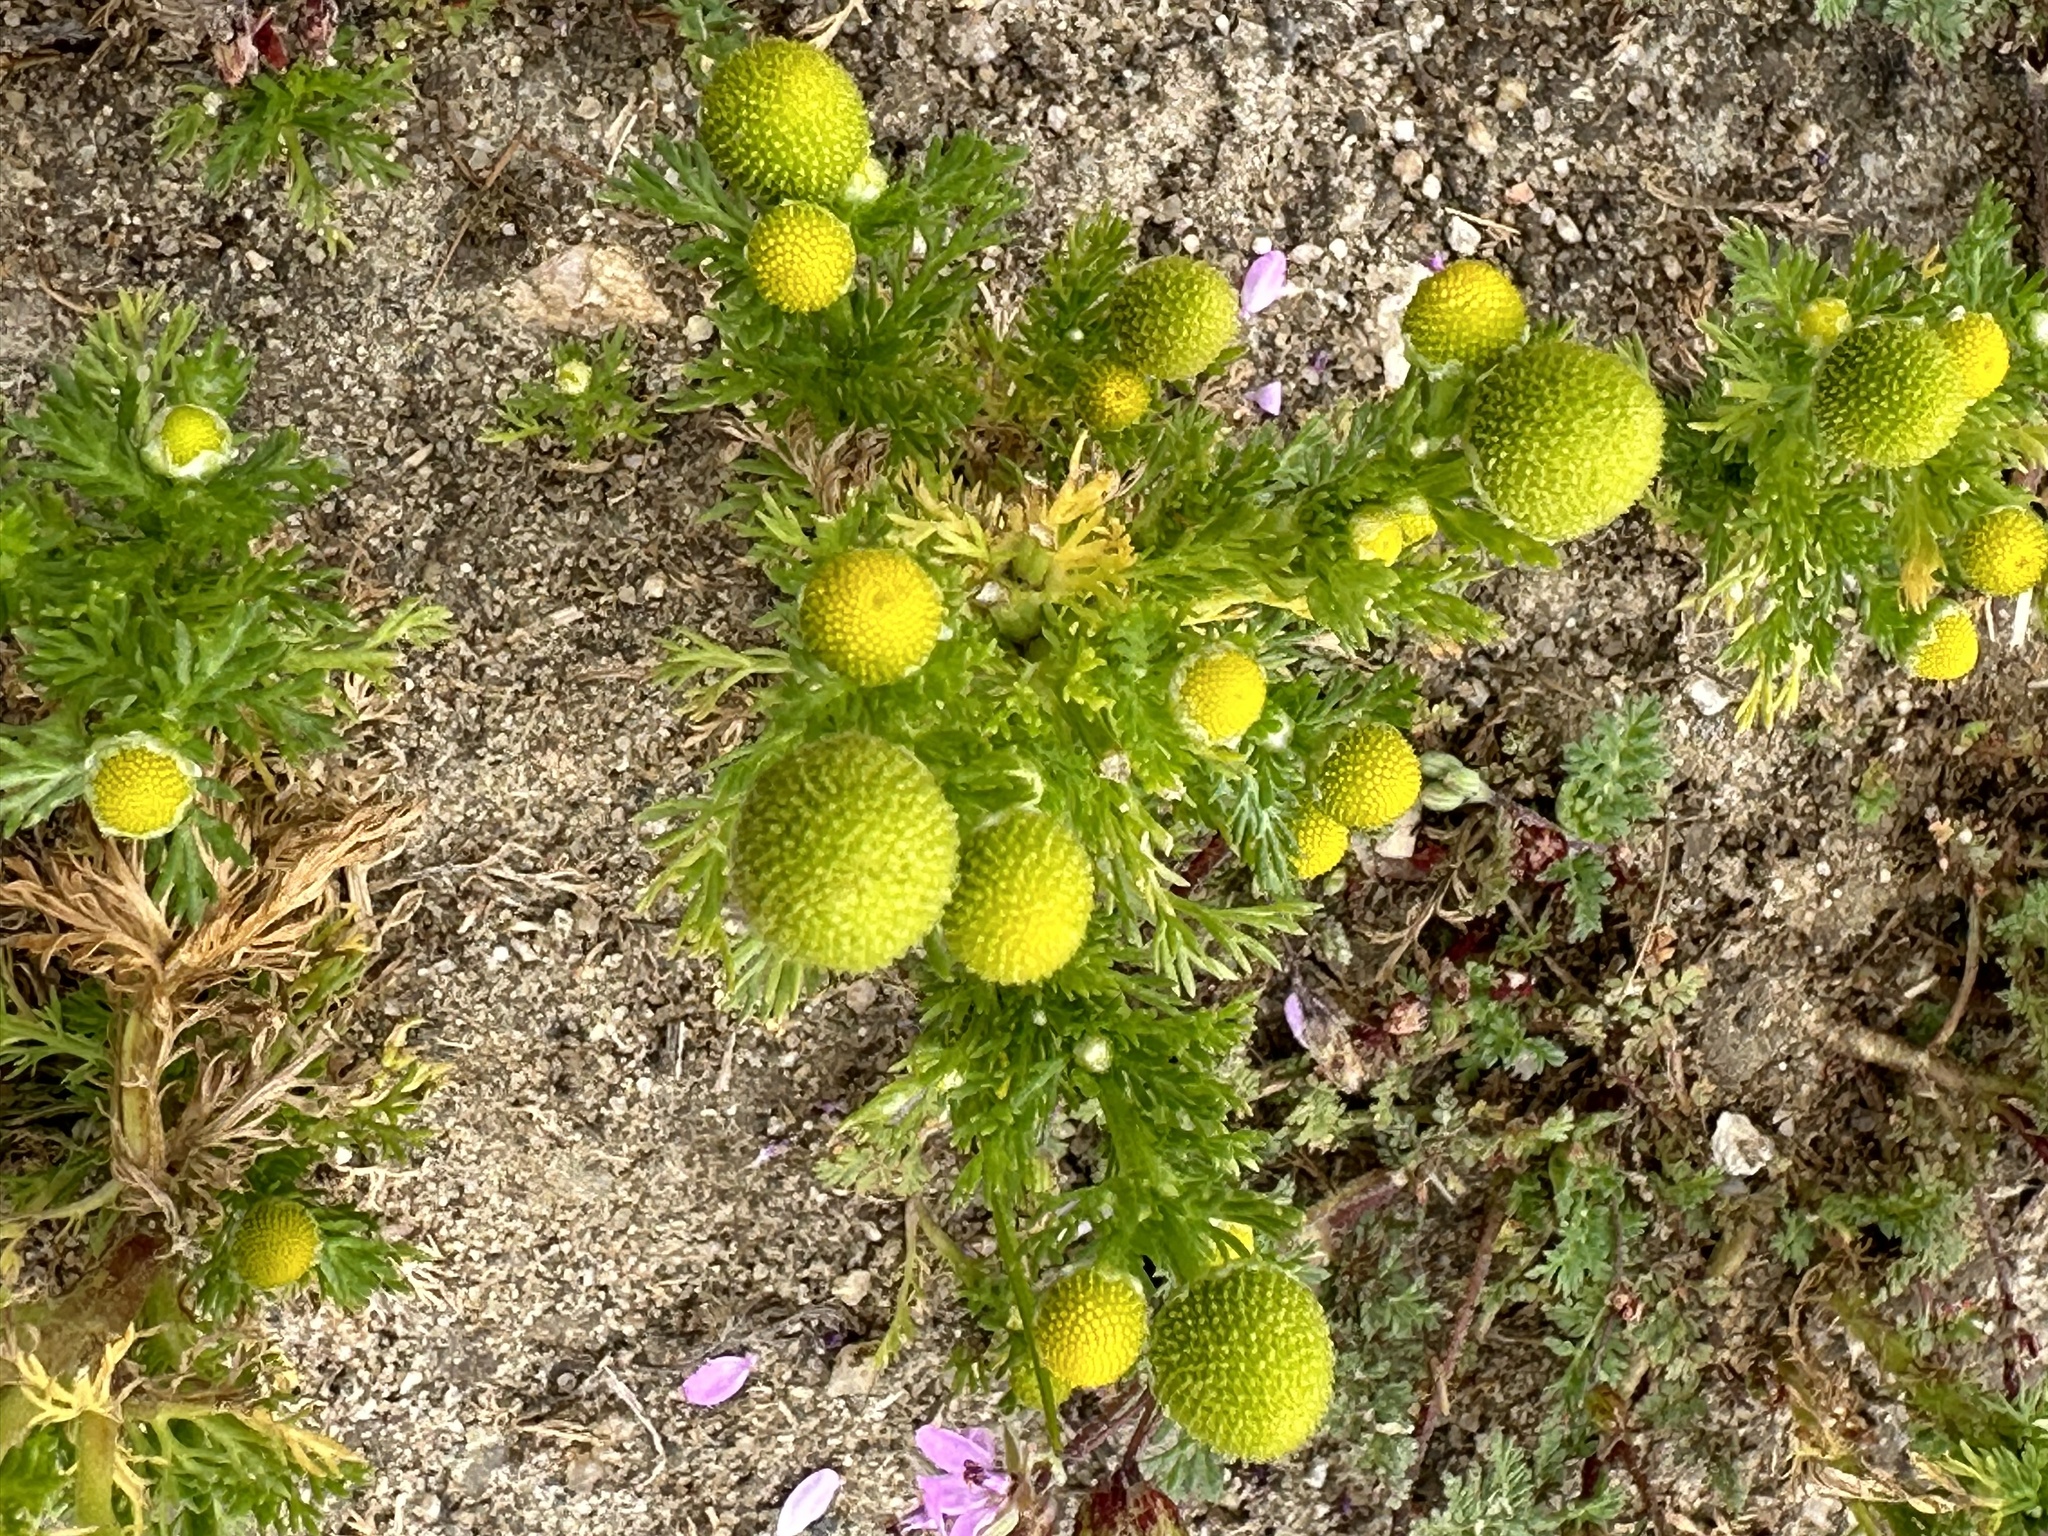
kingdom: Plantae
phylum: Tracheophyta
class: Magnoliopsida
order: Asterales
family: Asteraceae
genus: Matricaria
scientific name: Matricaria discoidea
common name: Disc mayweed
